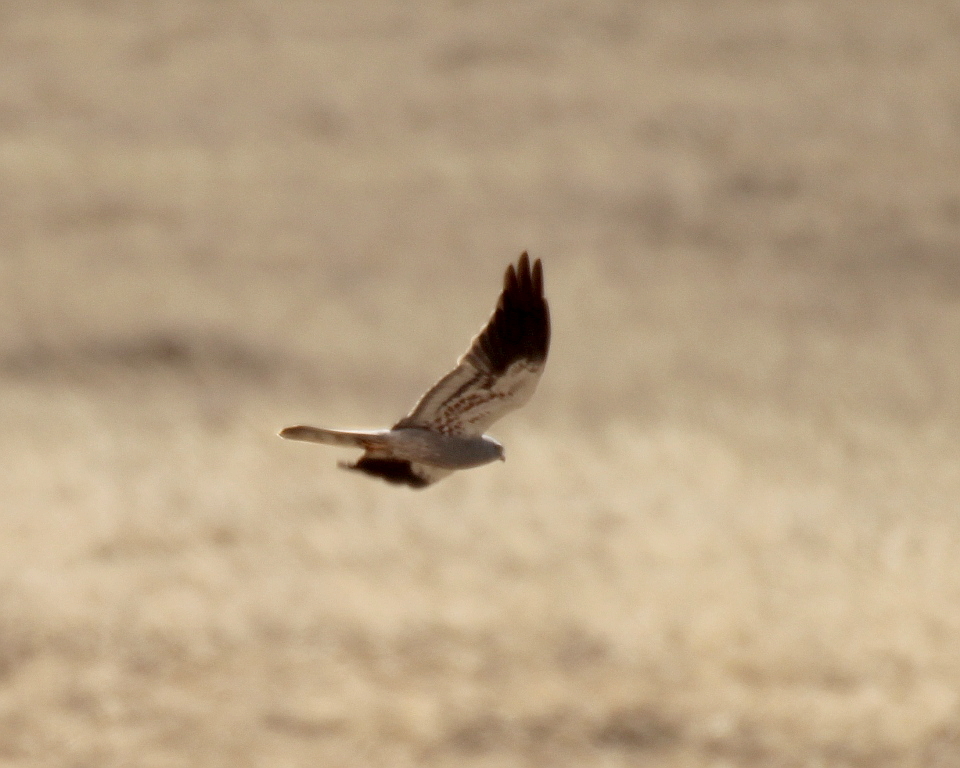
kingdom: Animalia
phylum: Chordata
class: Aves
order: Accipitriformes
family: Accipitridae
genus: Circus
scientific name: Circus pygargus
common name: Montagu's harrier
